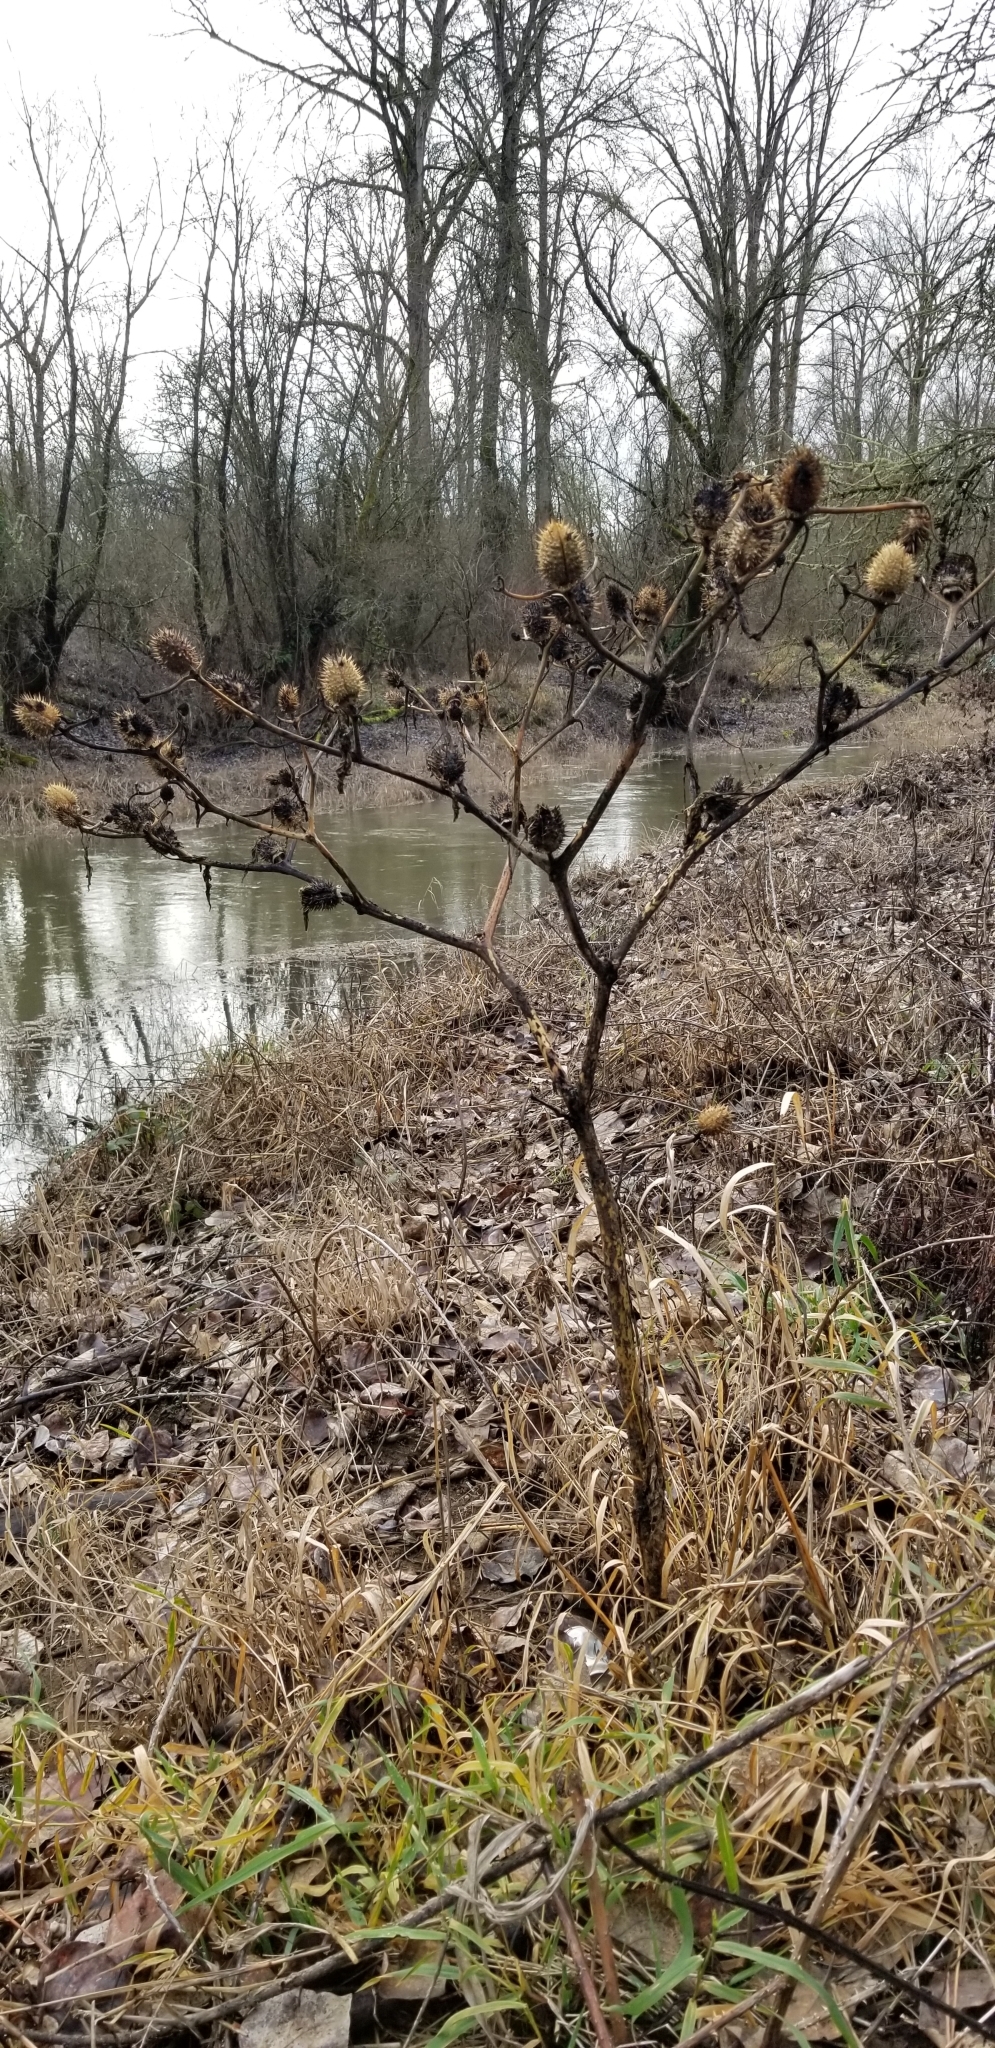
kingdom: Plantae
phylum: Tracheophyta
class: Magnoliopsida
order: Solanales
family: Solanaceae
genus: Datura
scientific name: Datura stramonium
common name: Thorn-apple
